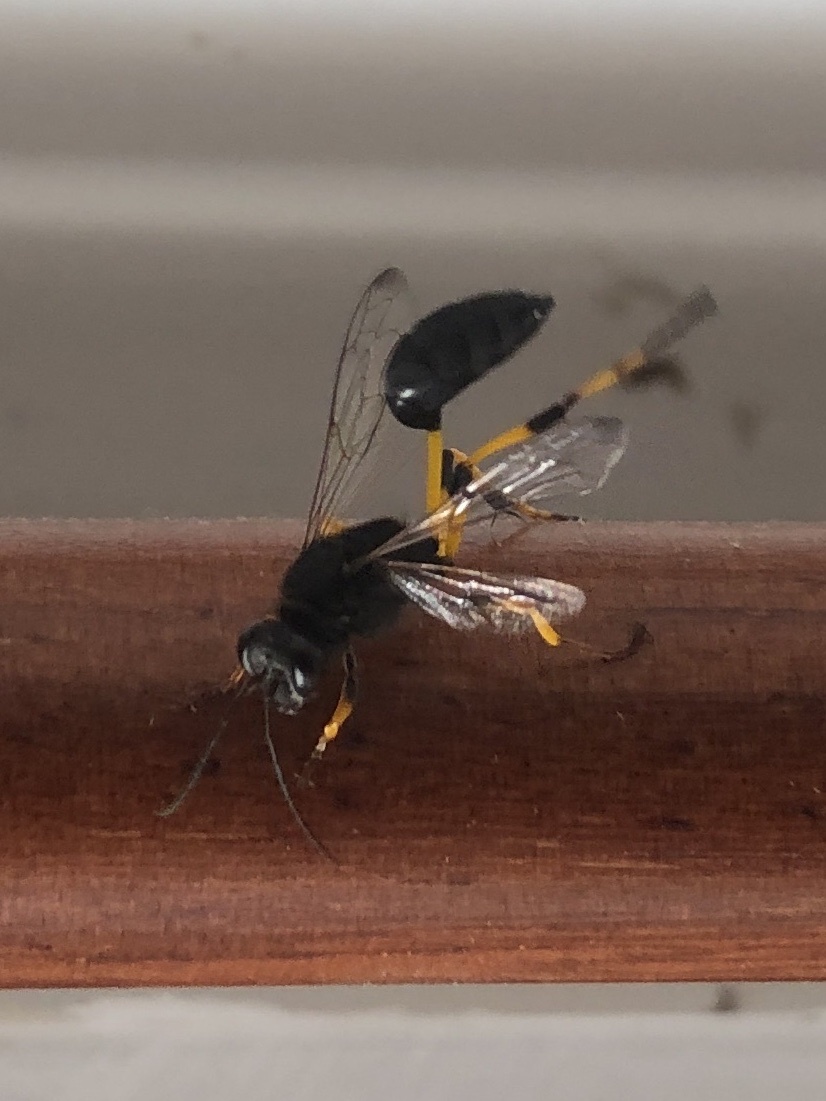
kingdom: Animalia
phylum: Arthropoda
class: Insecta
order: Hymenoptera
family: Sphecidae
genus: Sceliphron
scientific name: Sceliphron spirifex
